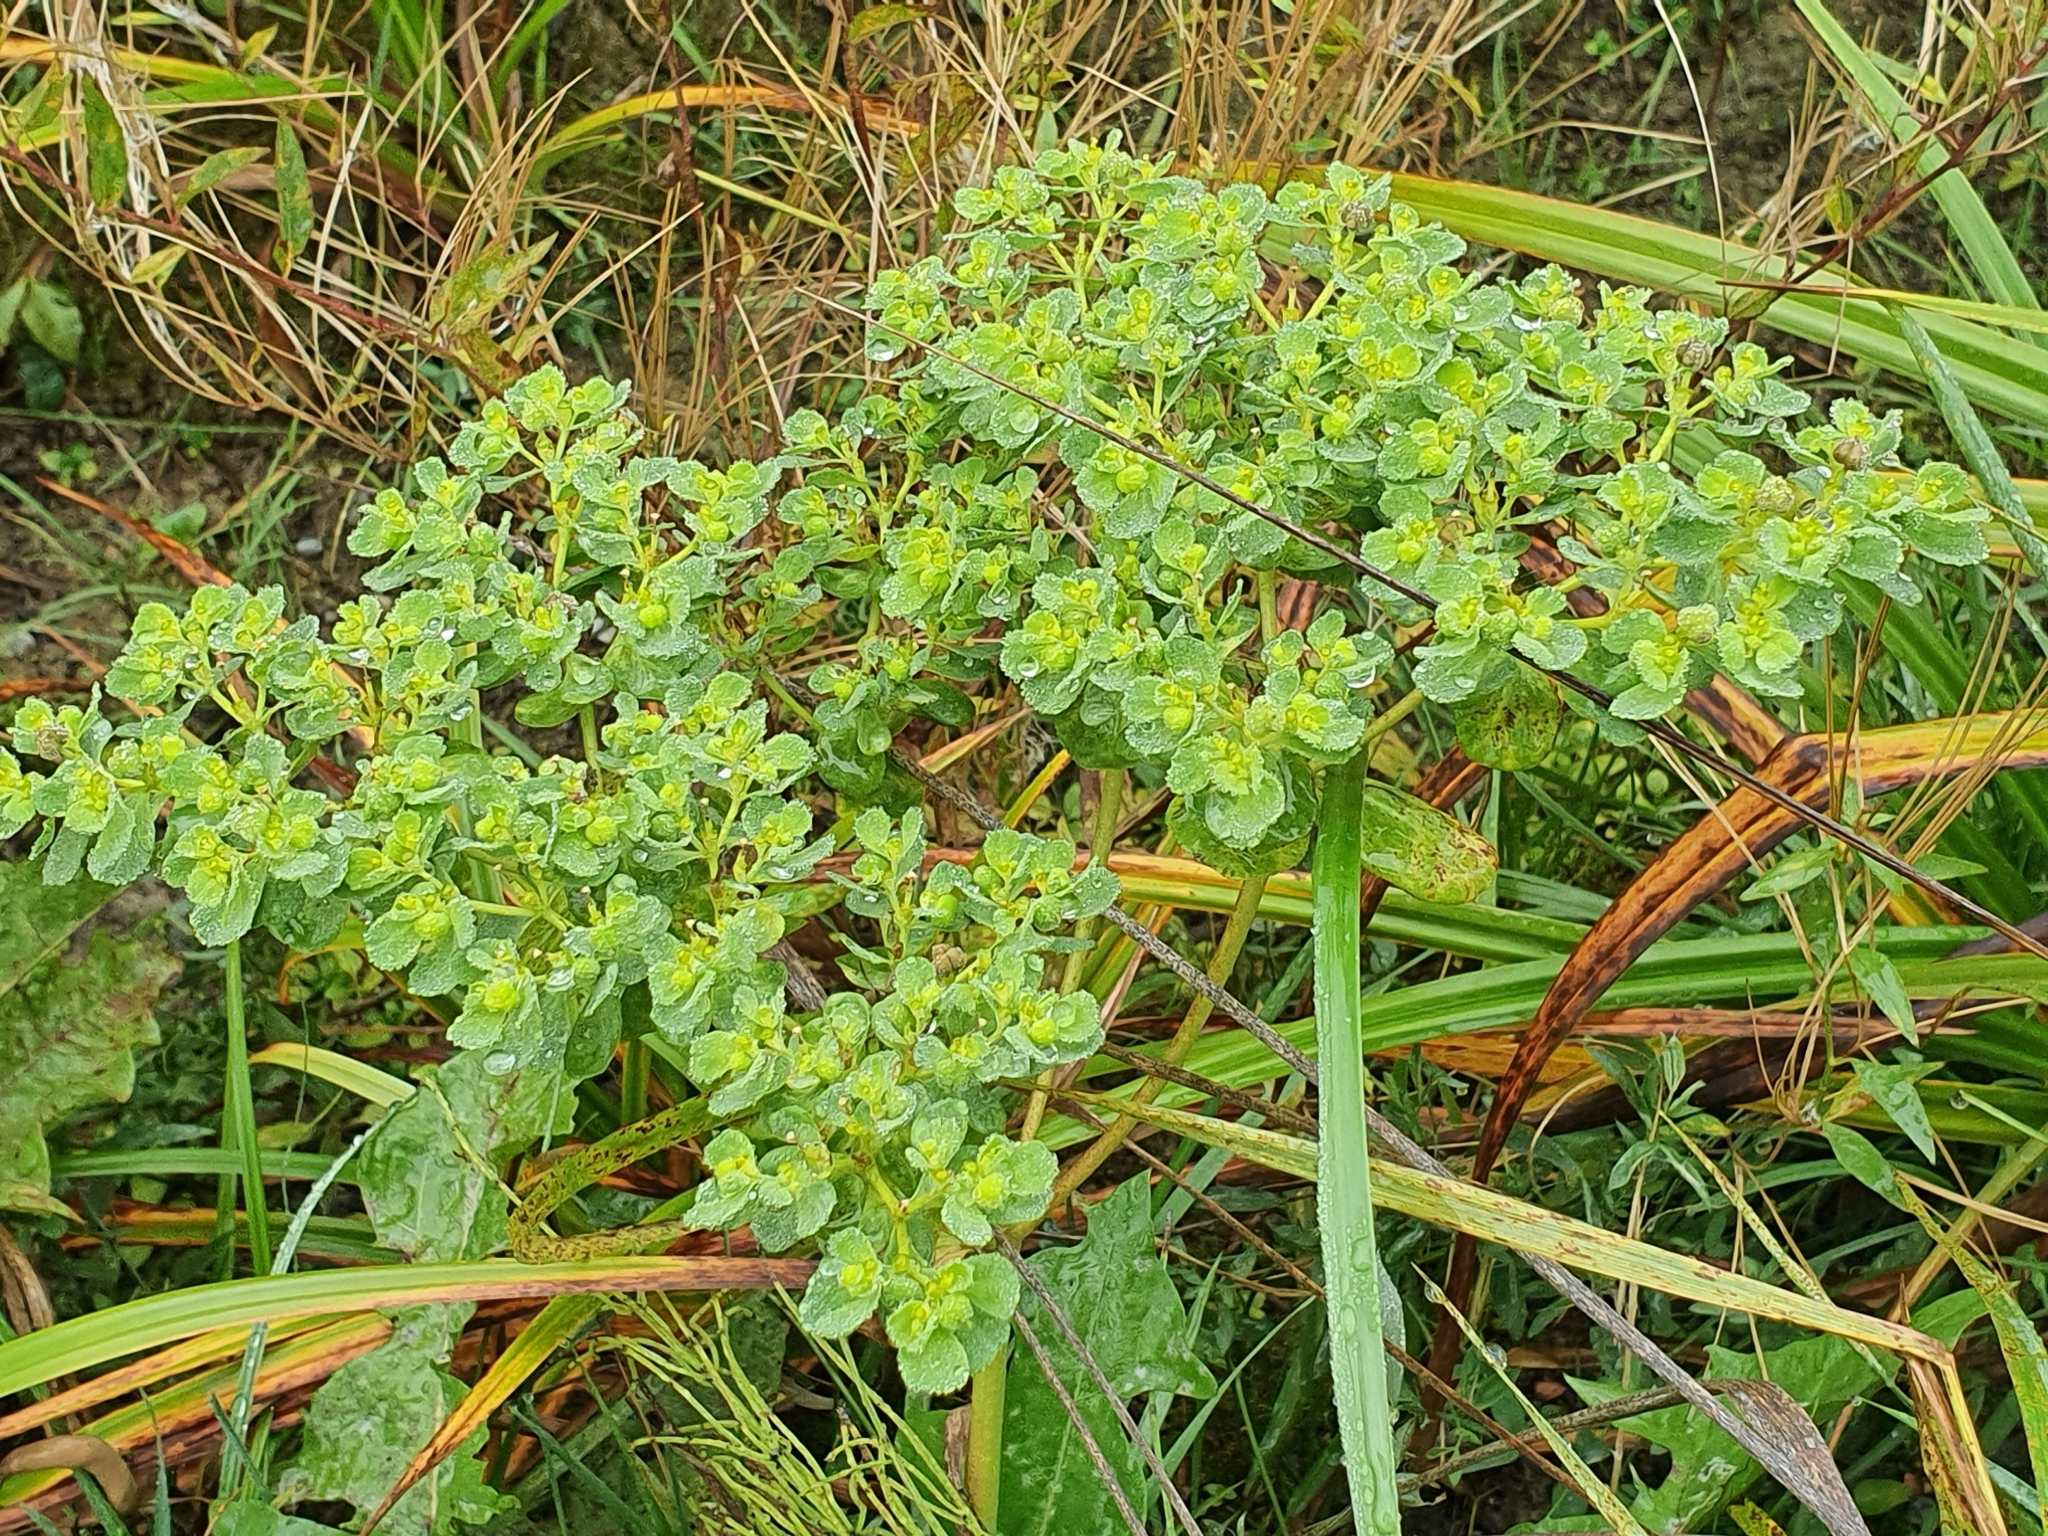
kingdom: Plantae
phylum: Tracheophyta
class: Magnoliopsida
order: Malpighiales
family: Euphorbiaceae
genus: Euphorbia
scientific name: Euphorbia helioscopia
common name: Sun spurge
